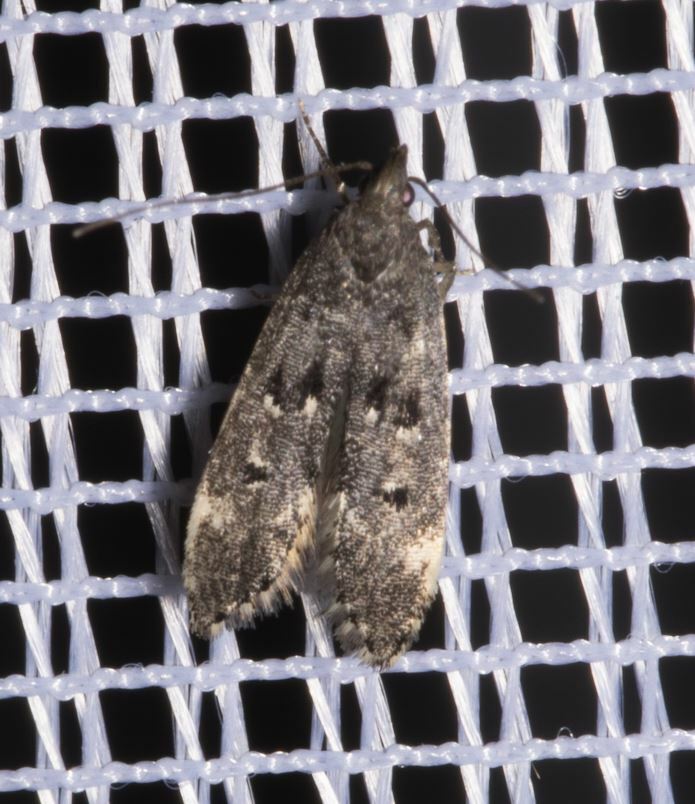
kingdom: Animalia
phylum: Arthropoda
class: Insecta
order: Lepidoptera
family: Gelechiidae
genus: Acanthophila
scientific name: Acanthophila alacella
